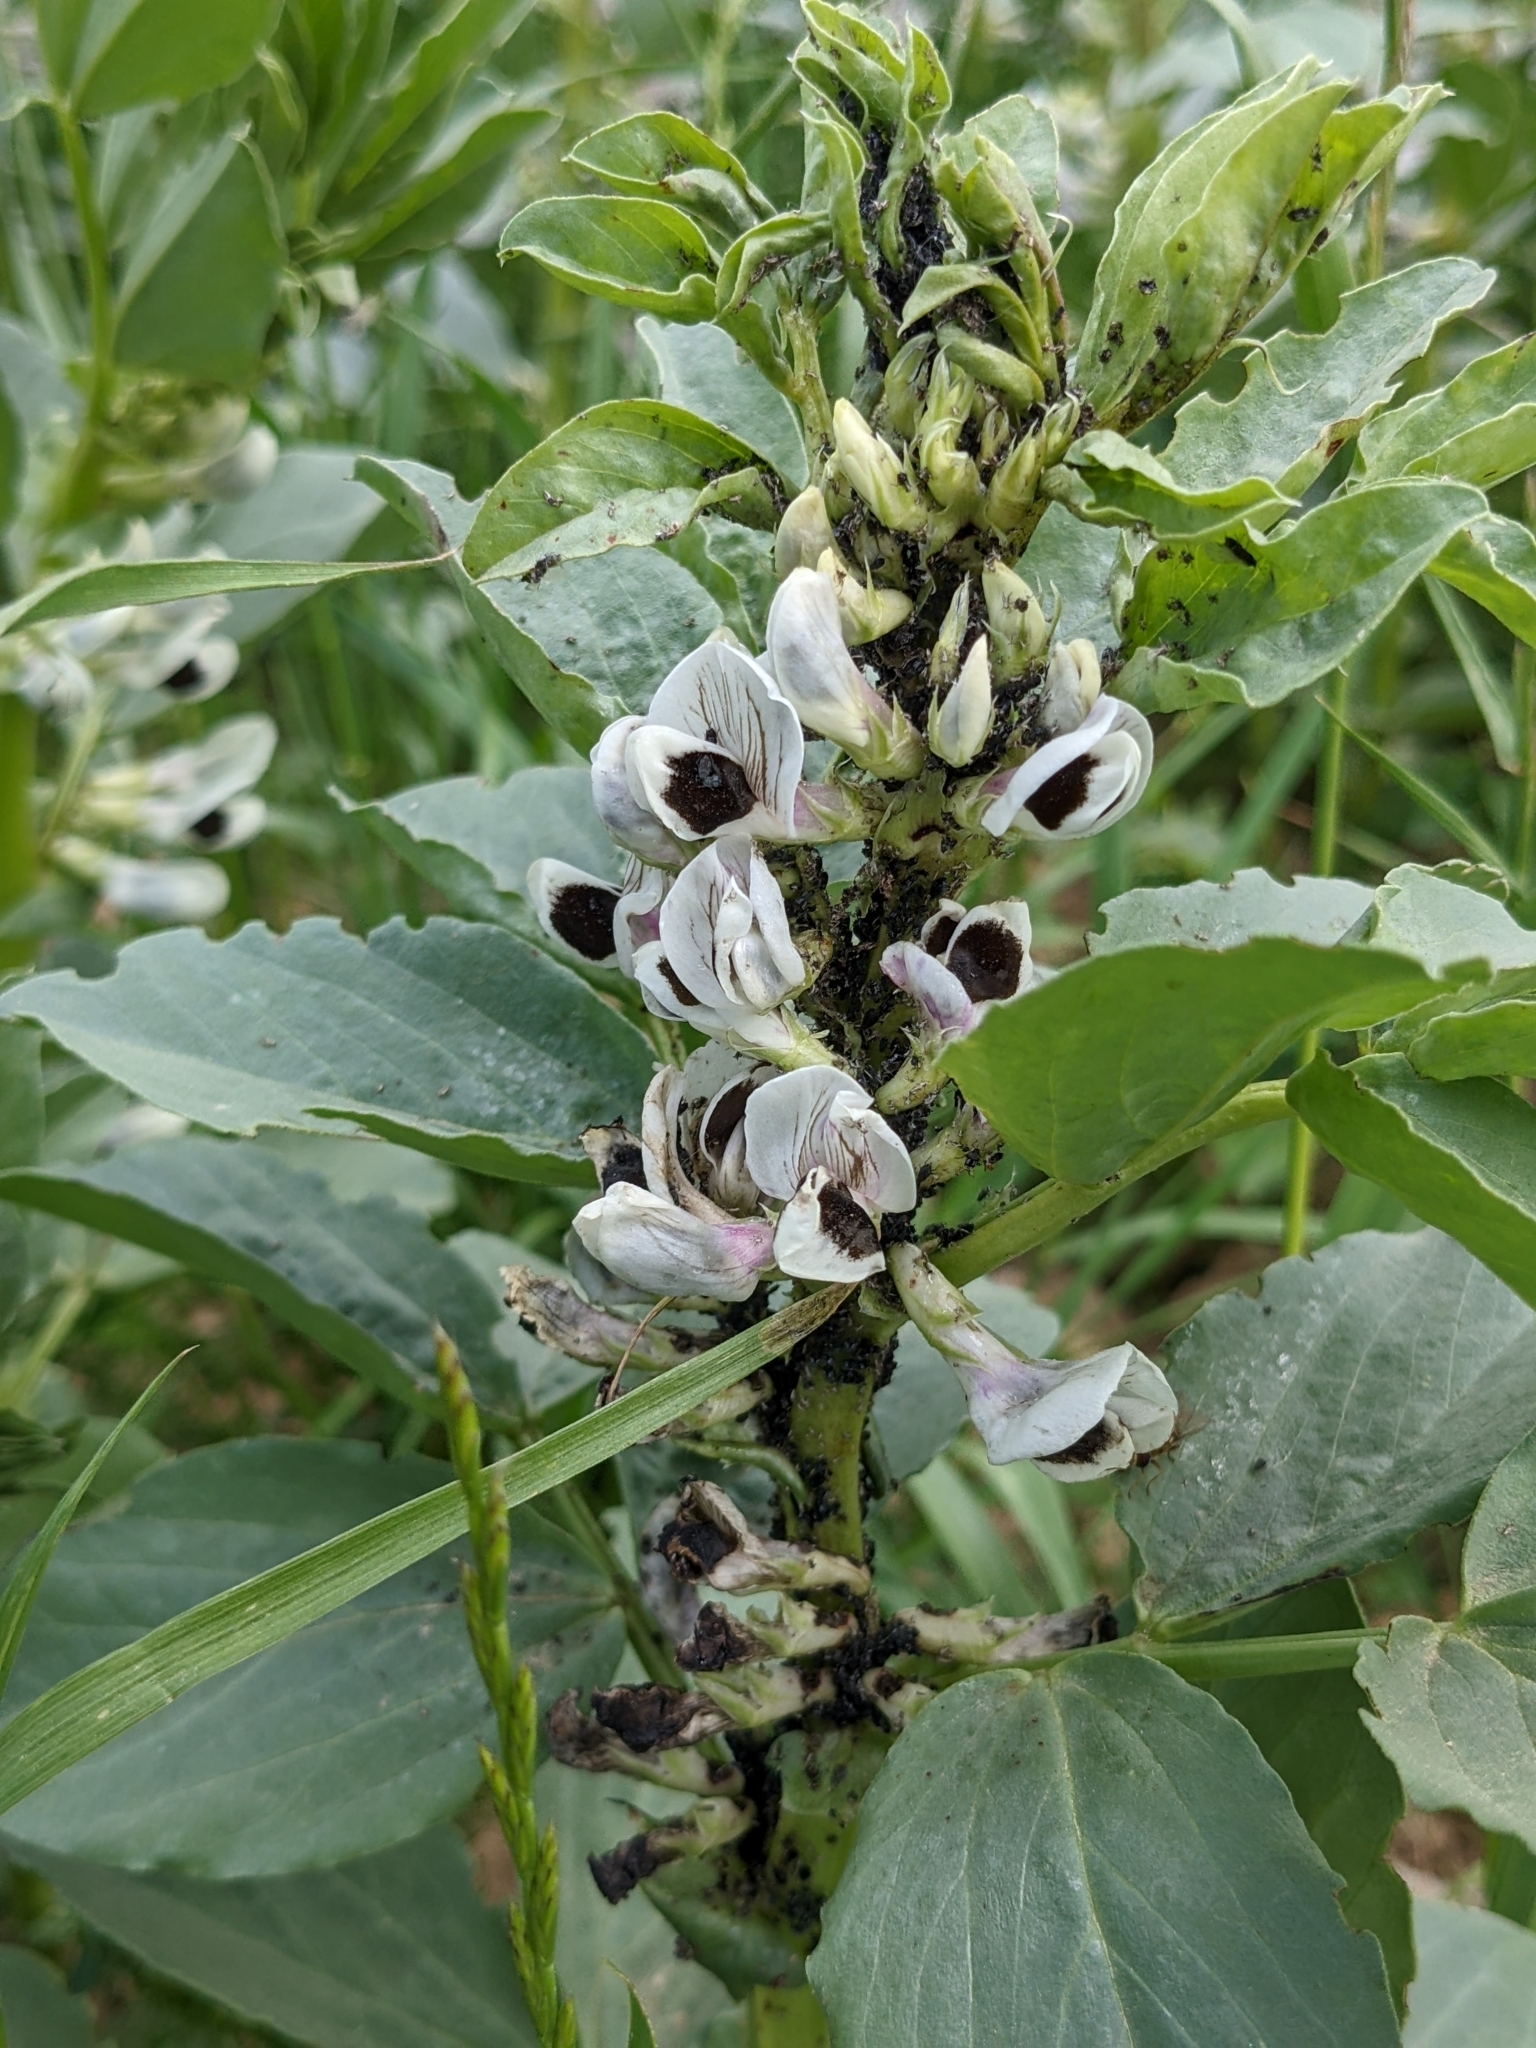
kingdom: Plantae
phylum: Tracheophyta
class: Magnoliopsida
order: Fabales
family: Fabaceae
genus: Vicia
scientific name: Vicia faba
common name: Broad bean
